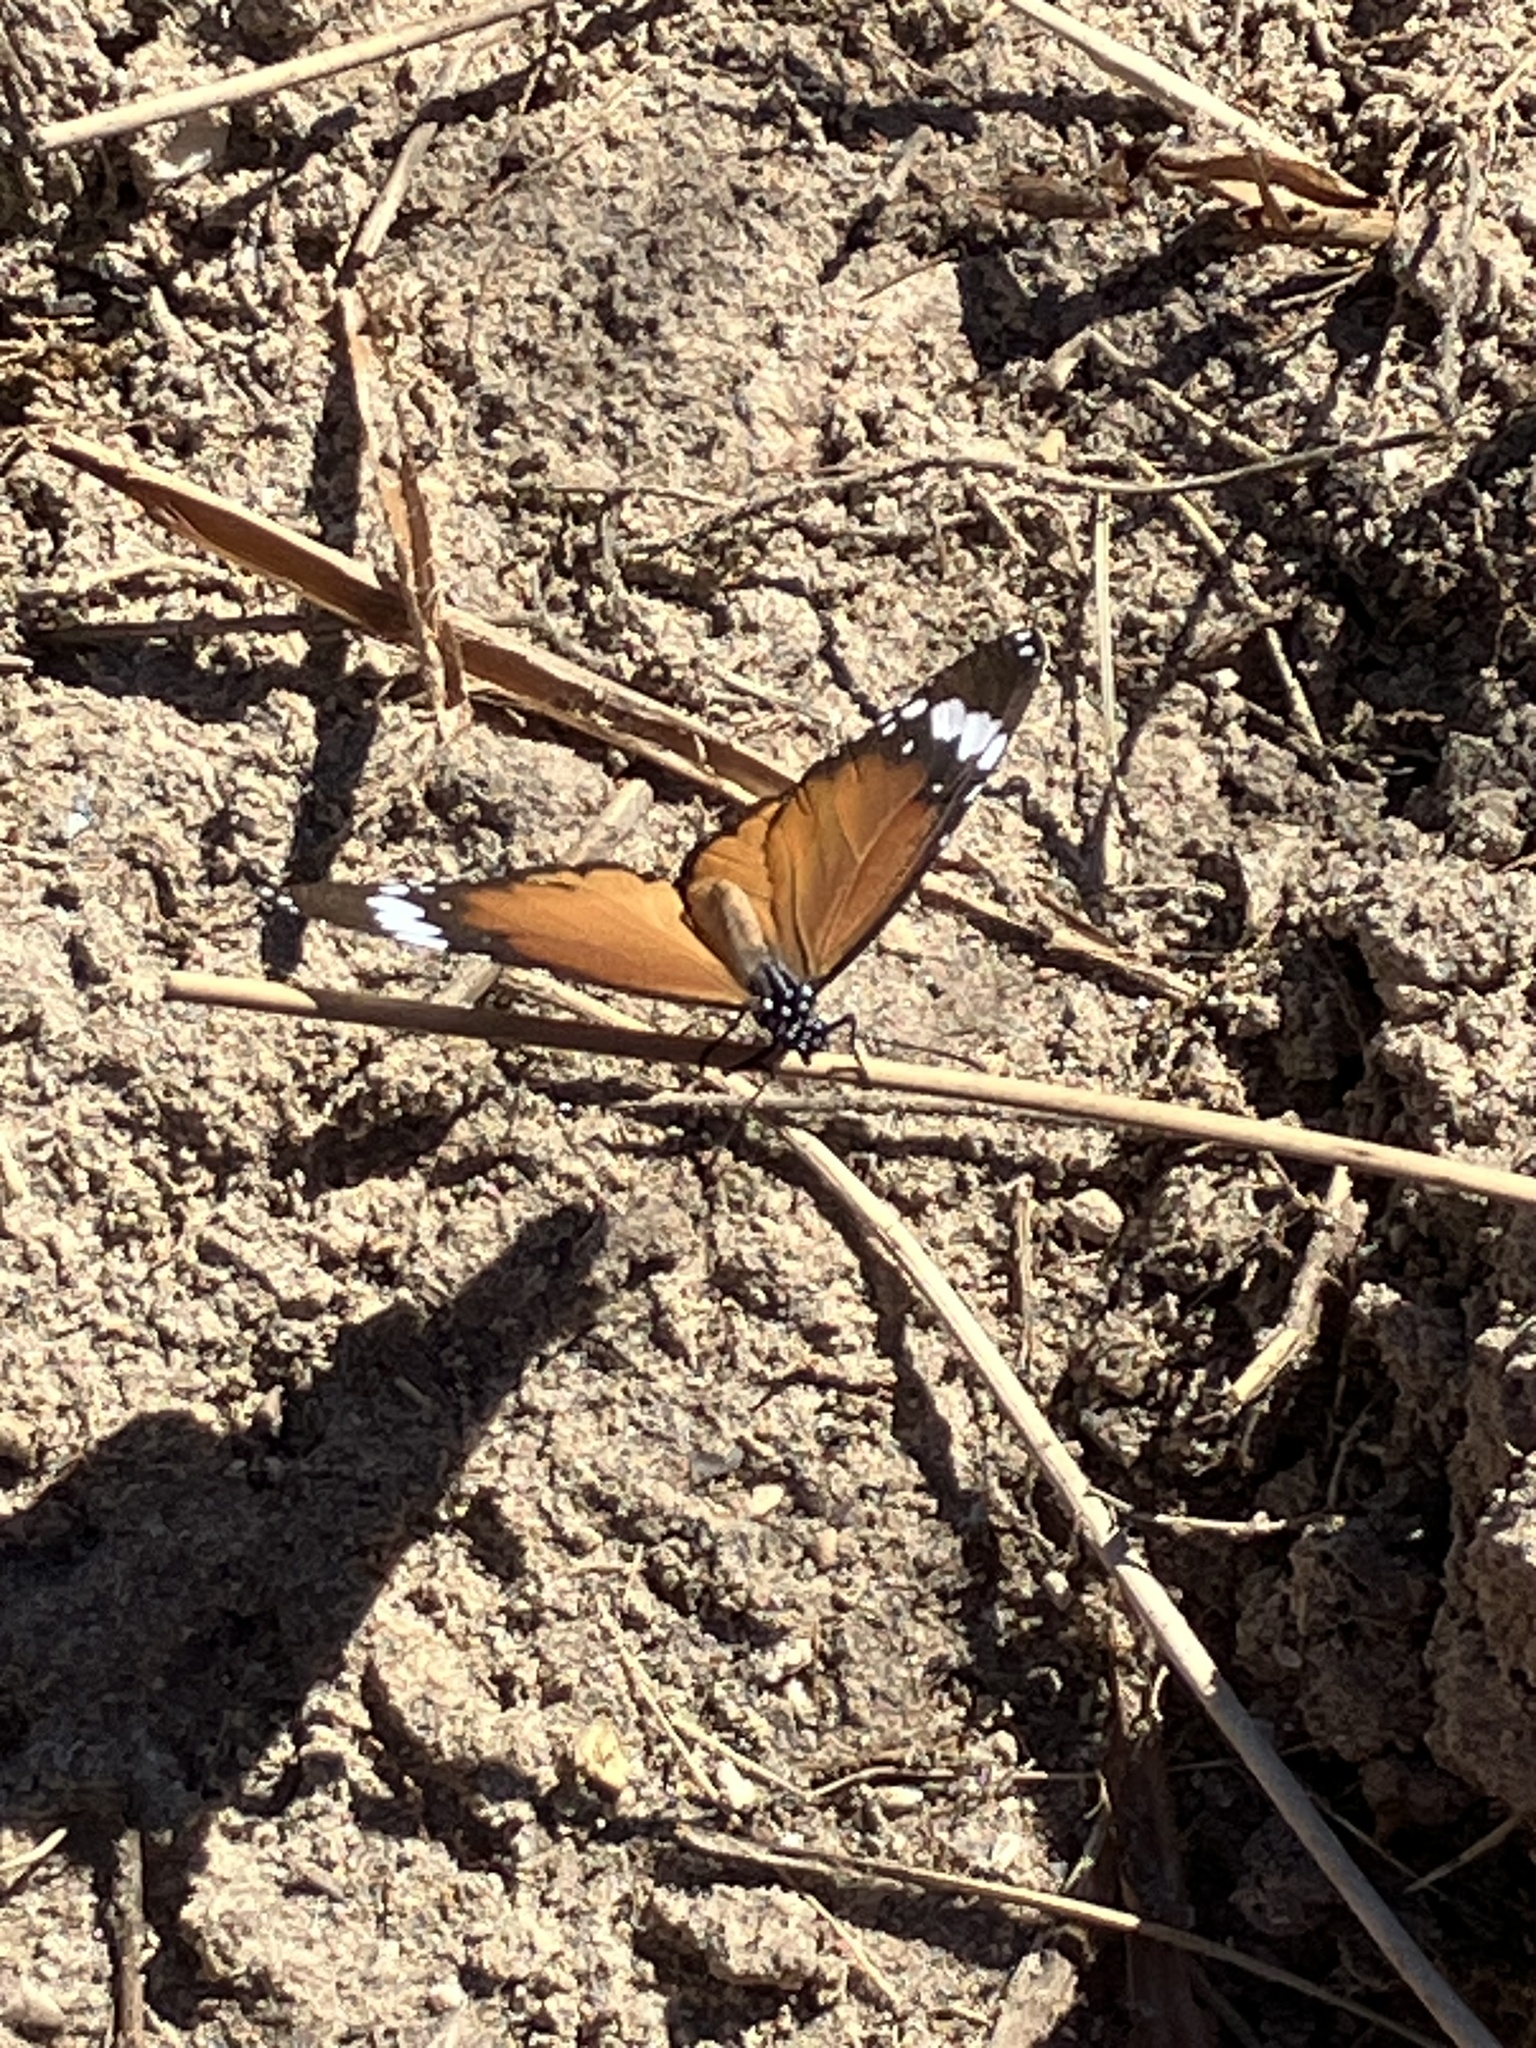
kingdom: Animalia
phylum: Arthropoda
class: Insecta
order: Lepidoptera
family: Nymphalidae
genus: Danaus
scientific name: Danaus chrysippus
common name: Plain tiger
